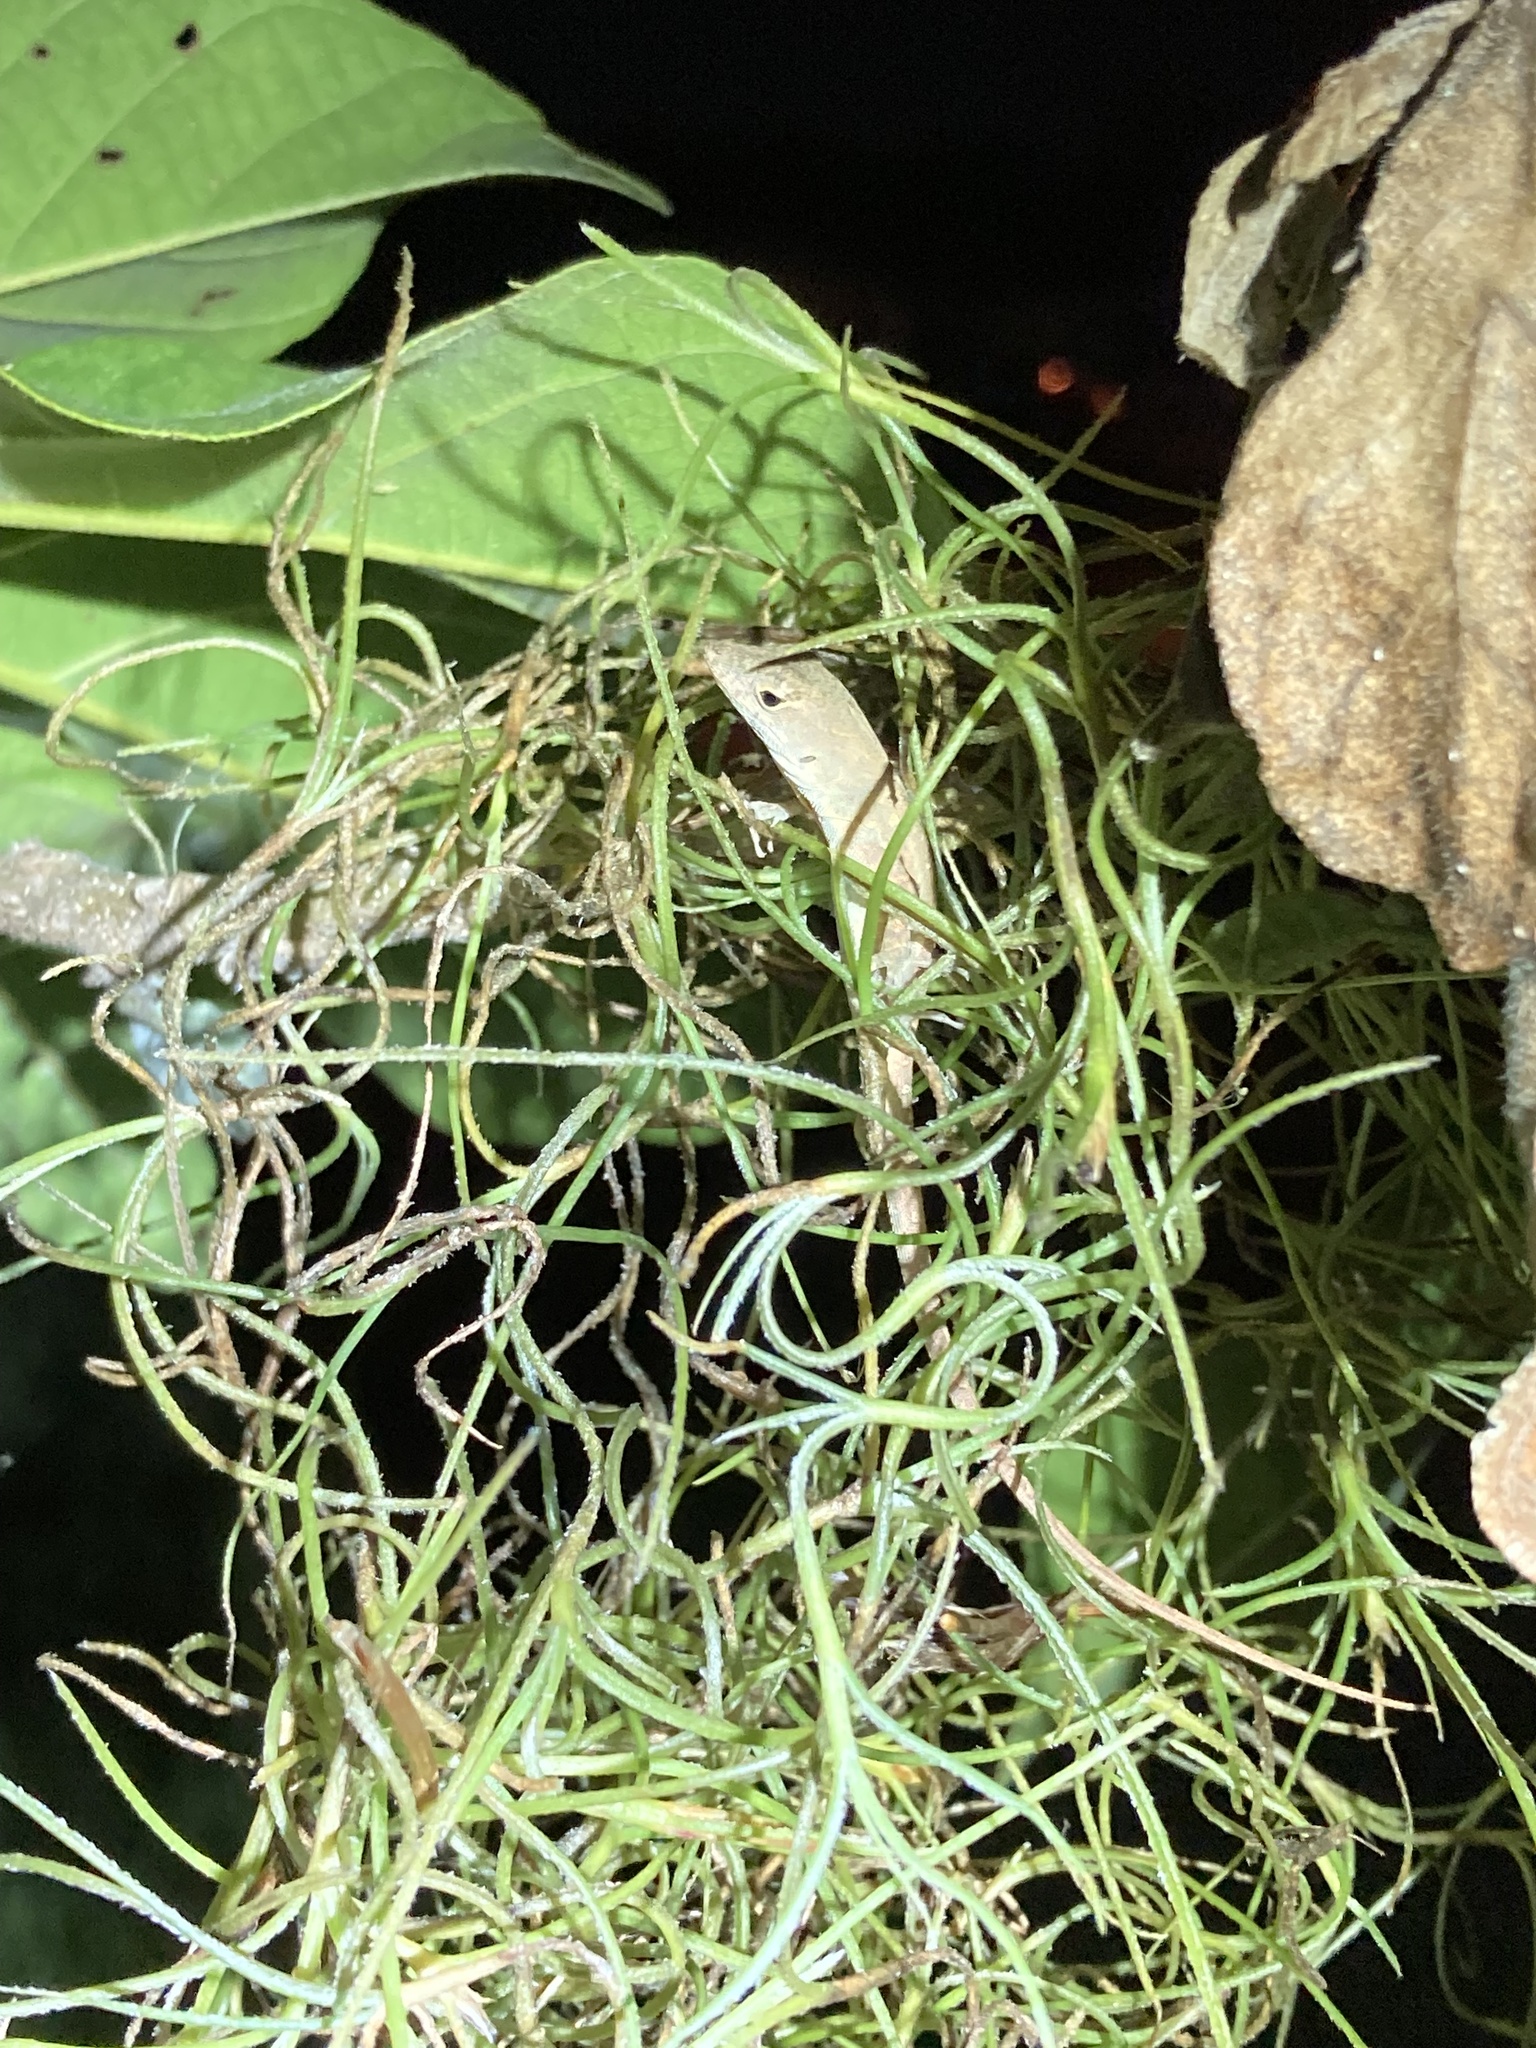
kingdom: Animalia
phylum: Chordata
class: Squamata
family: Dactyloidae
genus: Anolis
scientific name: Anolis sagrei
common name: Brown anole
